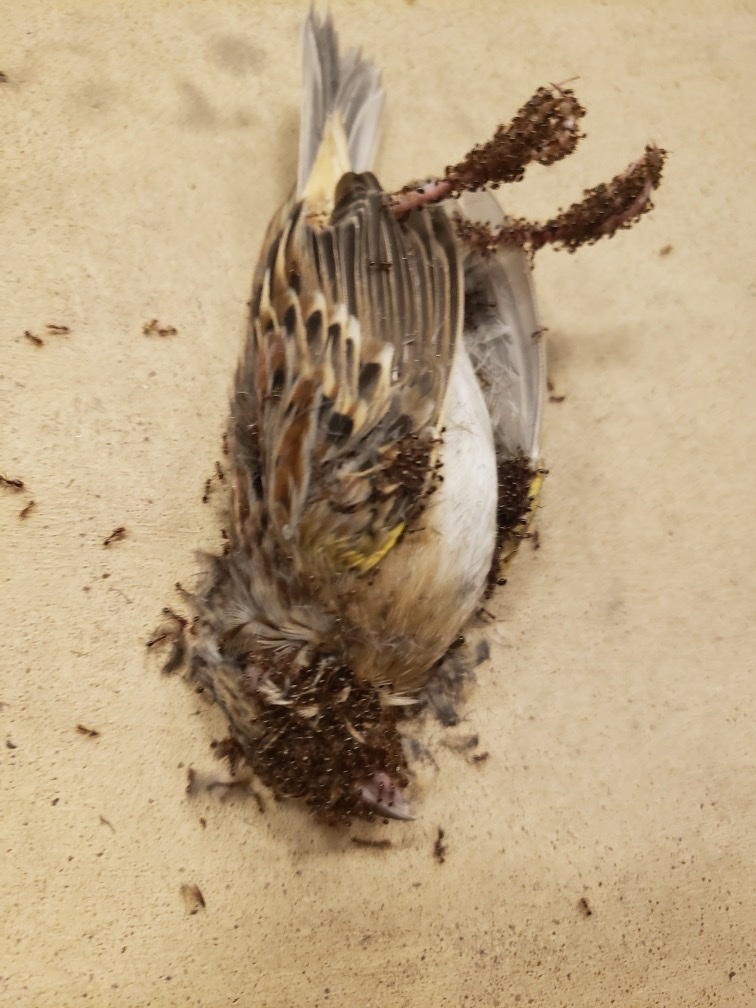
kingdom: Animalia
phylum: Chordata
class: Aves
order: Passeriformes
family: Passerellidae
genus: Ammodramus
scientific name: Ammodramus savannarum
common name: Grasshopper sparrow
